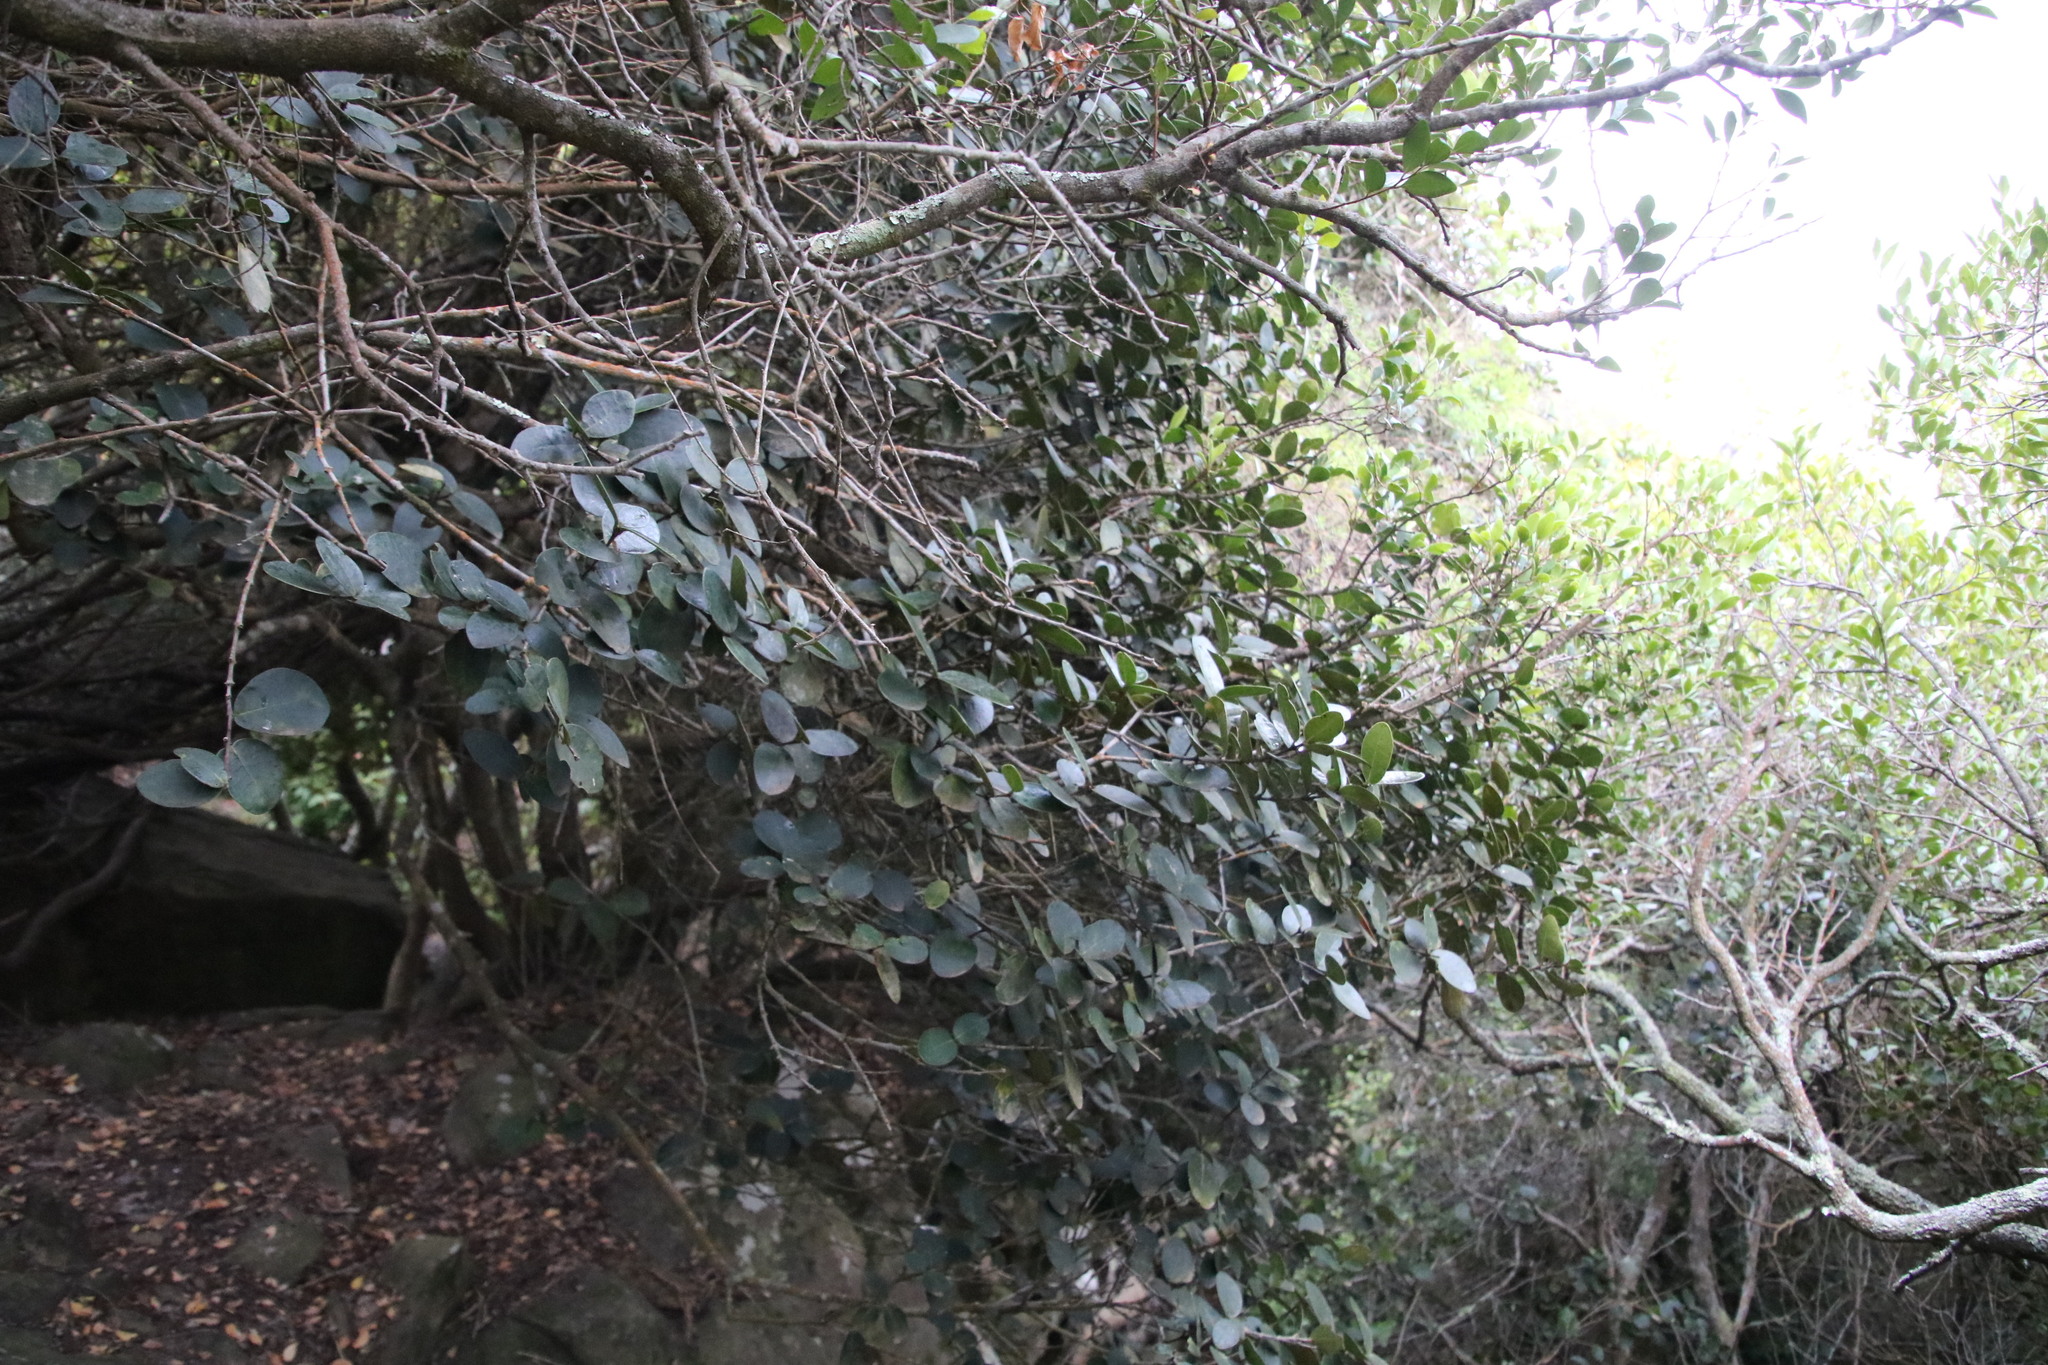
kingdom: Plantae
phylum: Tracheophyta
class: Magnoliopsida
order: Celastrales
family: Celastraceae
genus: Maurocenia
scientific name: Maurocenia frangula
